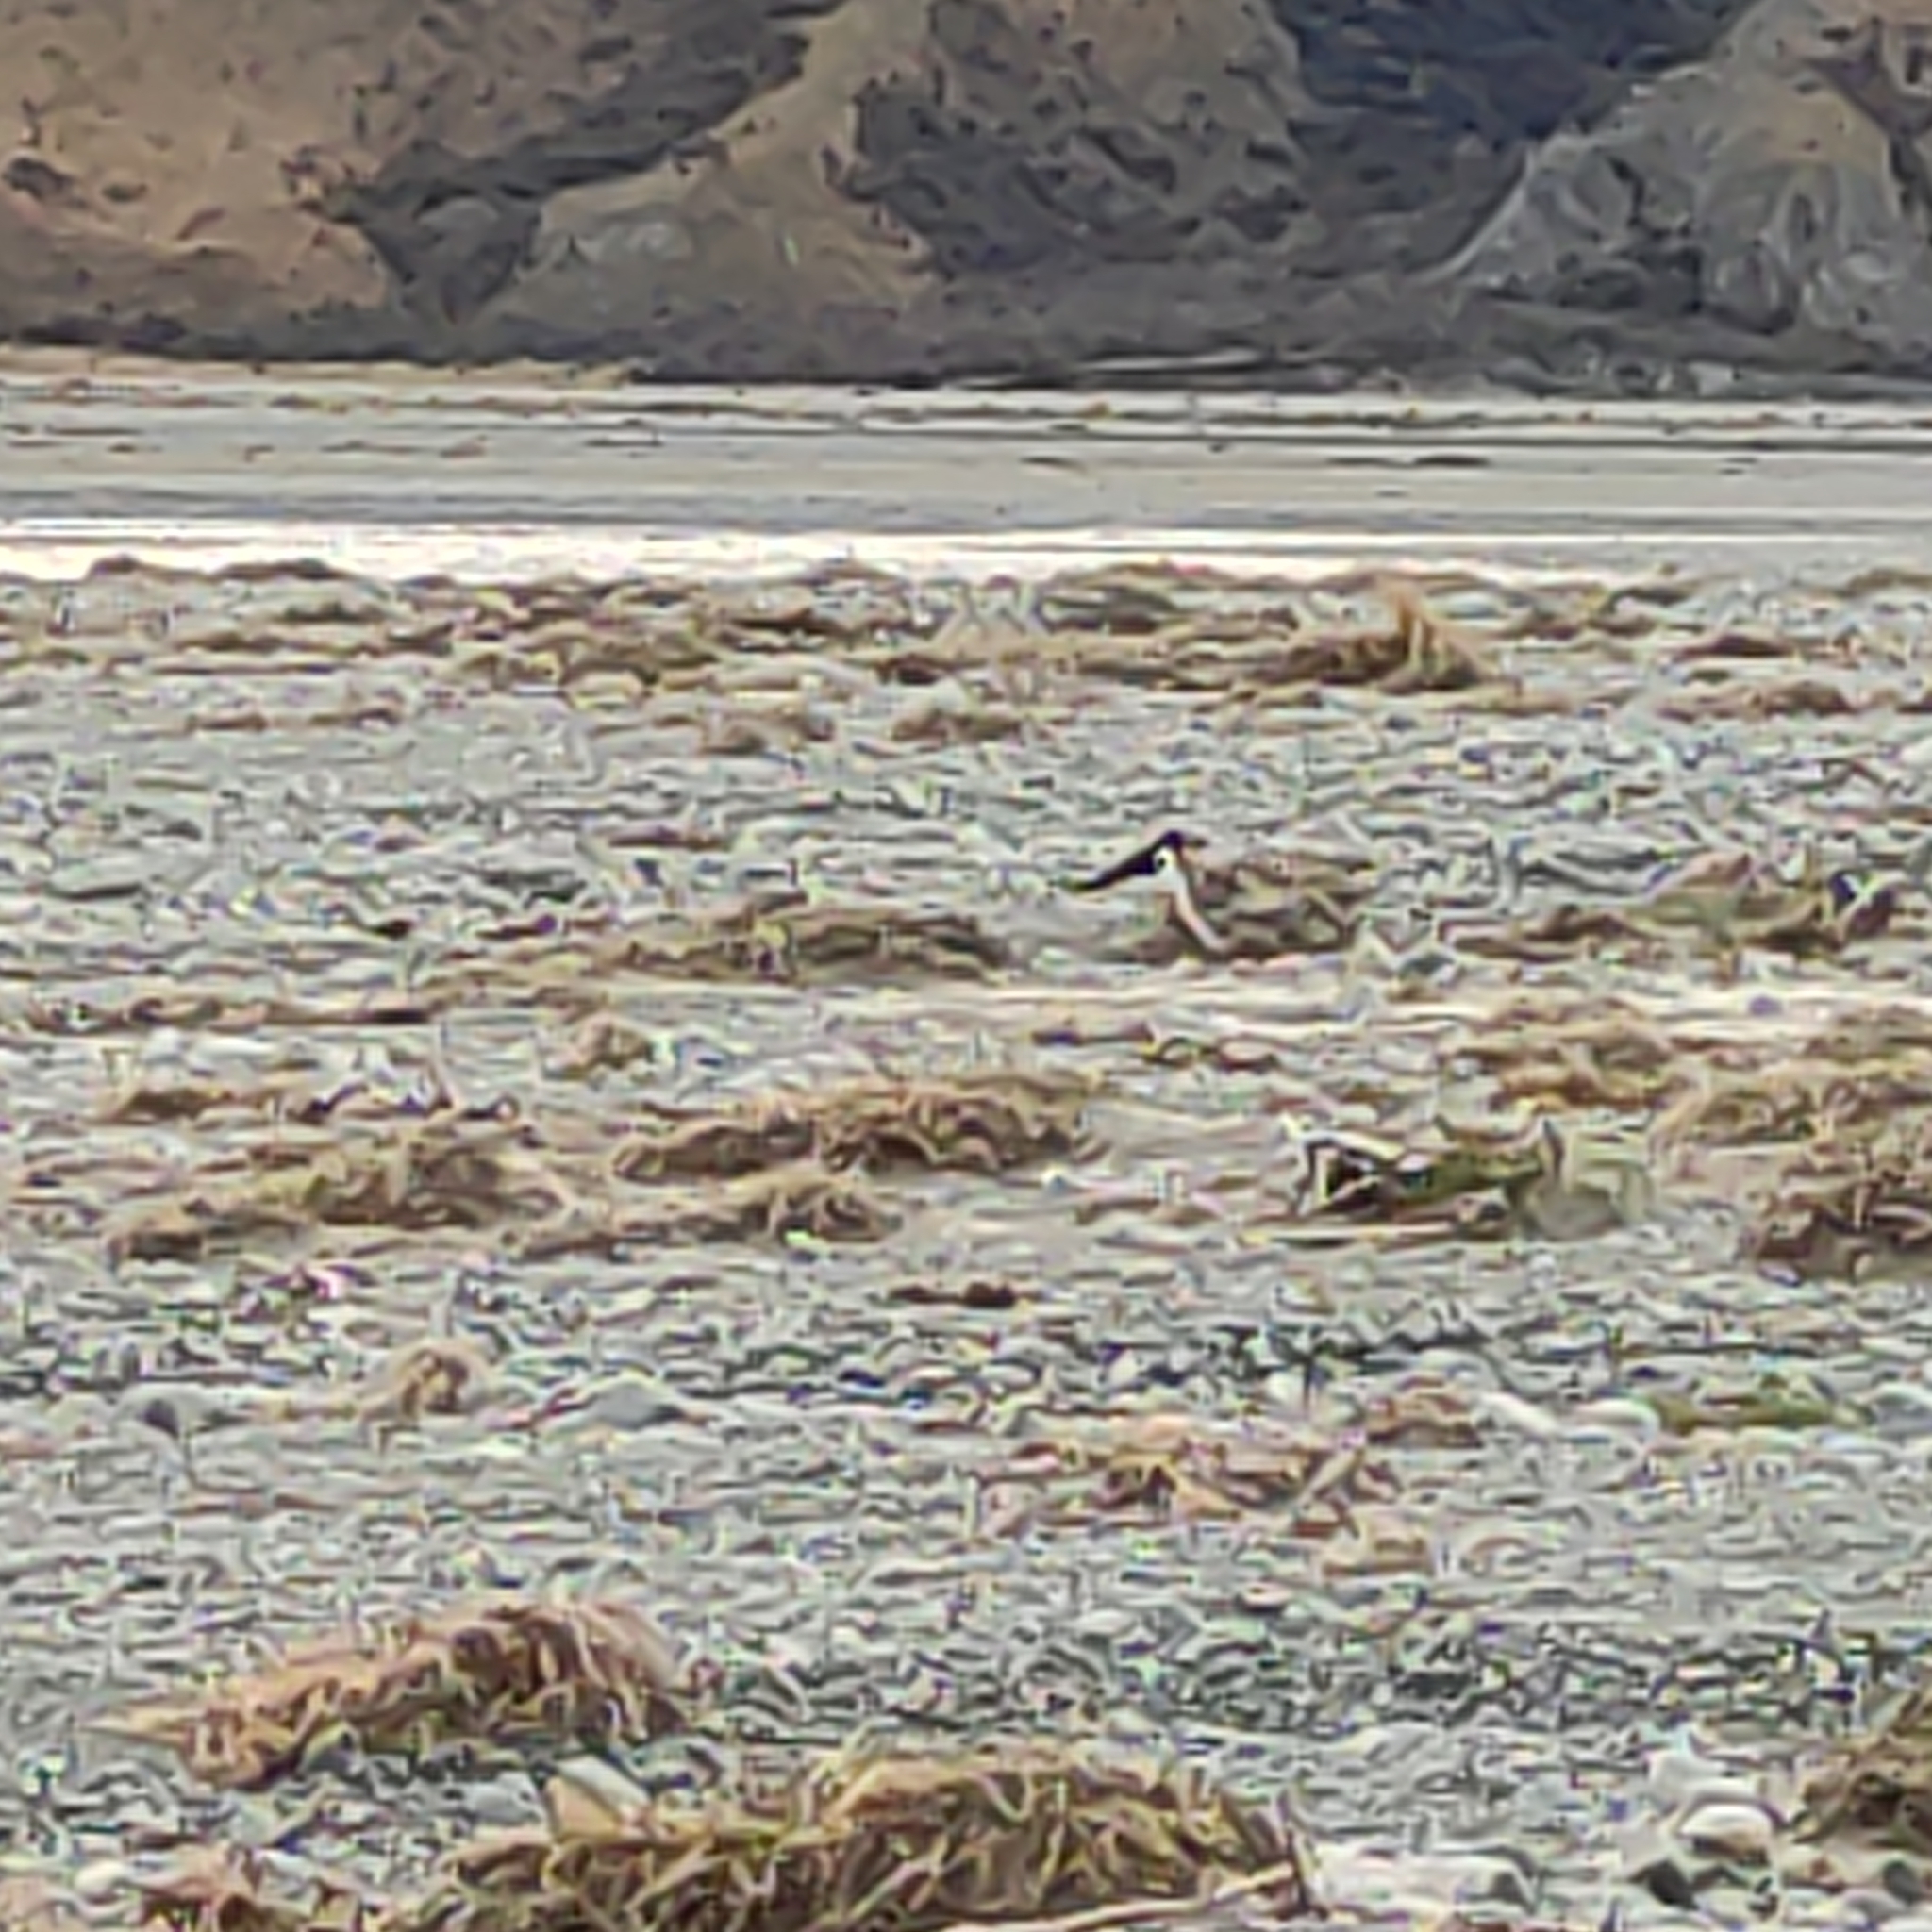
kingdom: Animalia
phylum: Chordata
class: Aves
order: Charadriiformes
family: Haematopodidae
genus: Haematopus
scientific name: Haematopus finschi
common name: South island oystercatcher
